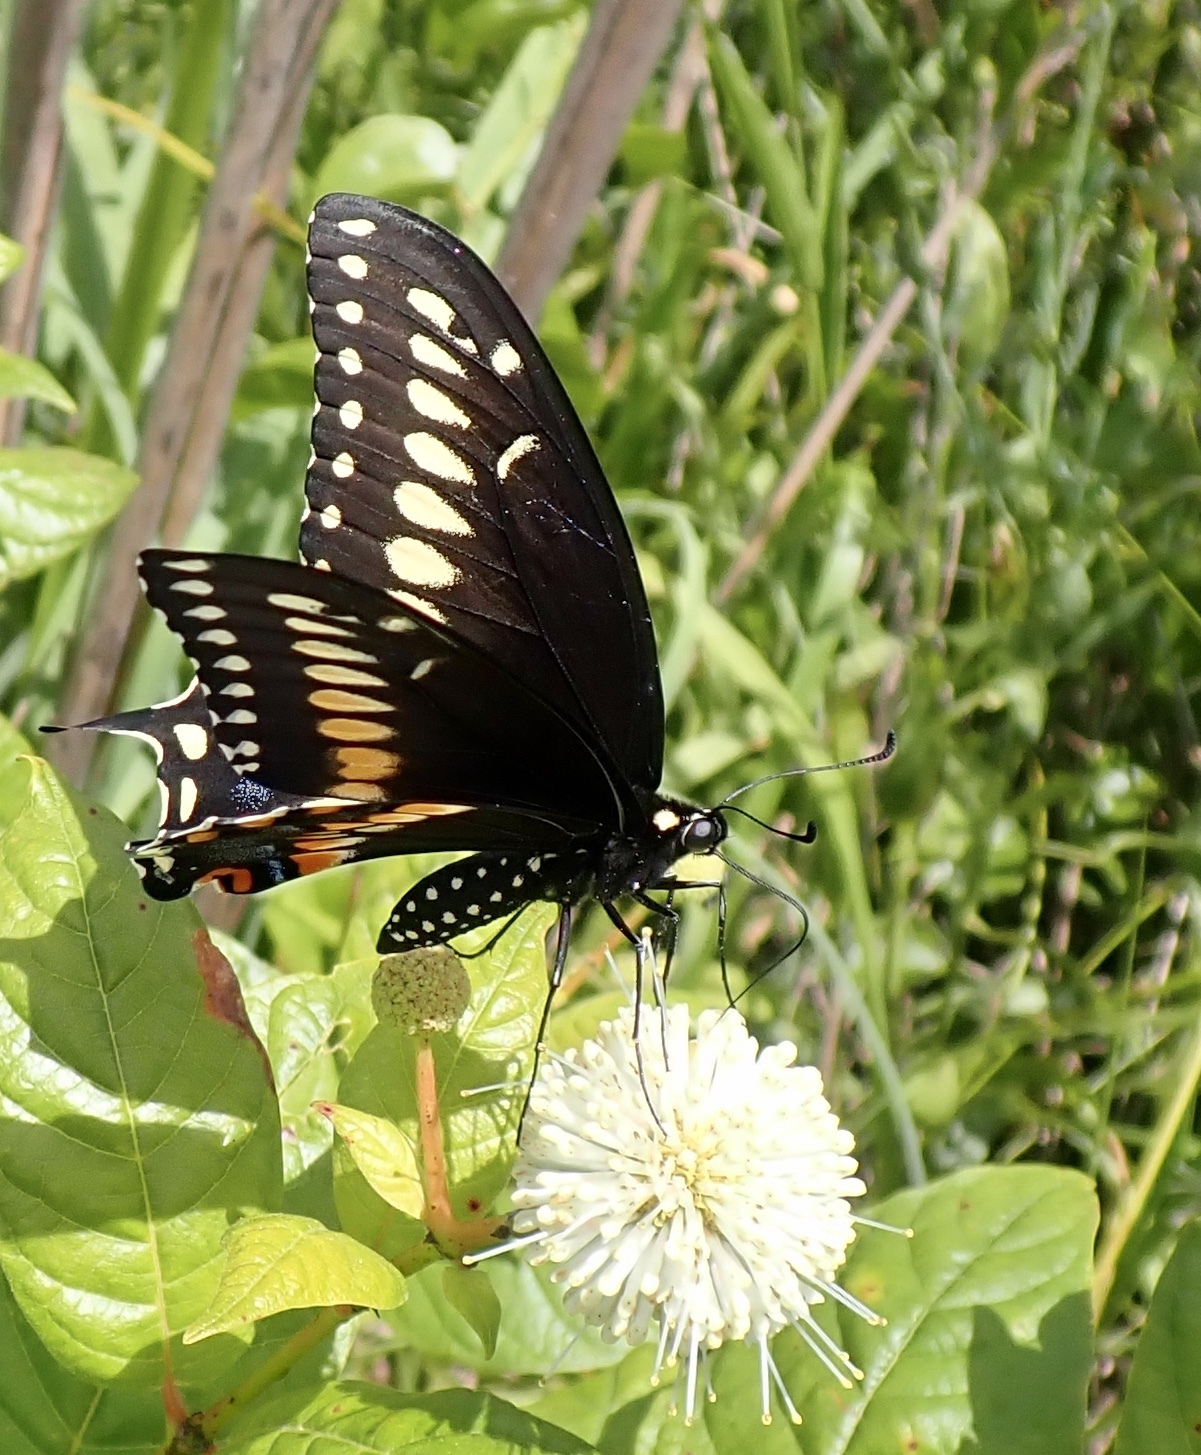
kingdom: Animalia
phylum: Arthropoda
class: Insecta
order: Lepidoptera
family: Papilionidae
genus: Papilio
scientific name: Papilio polyxenes
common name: Black swallowtail
